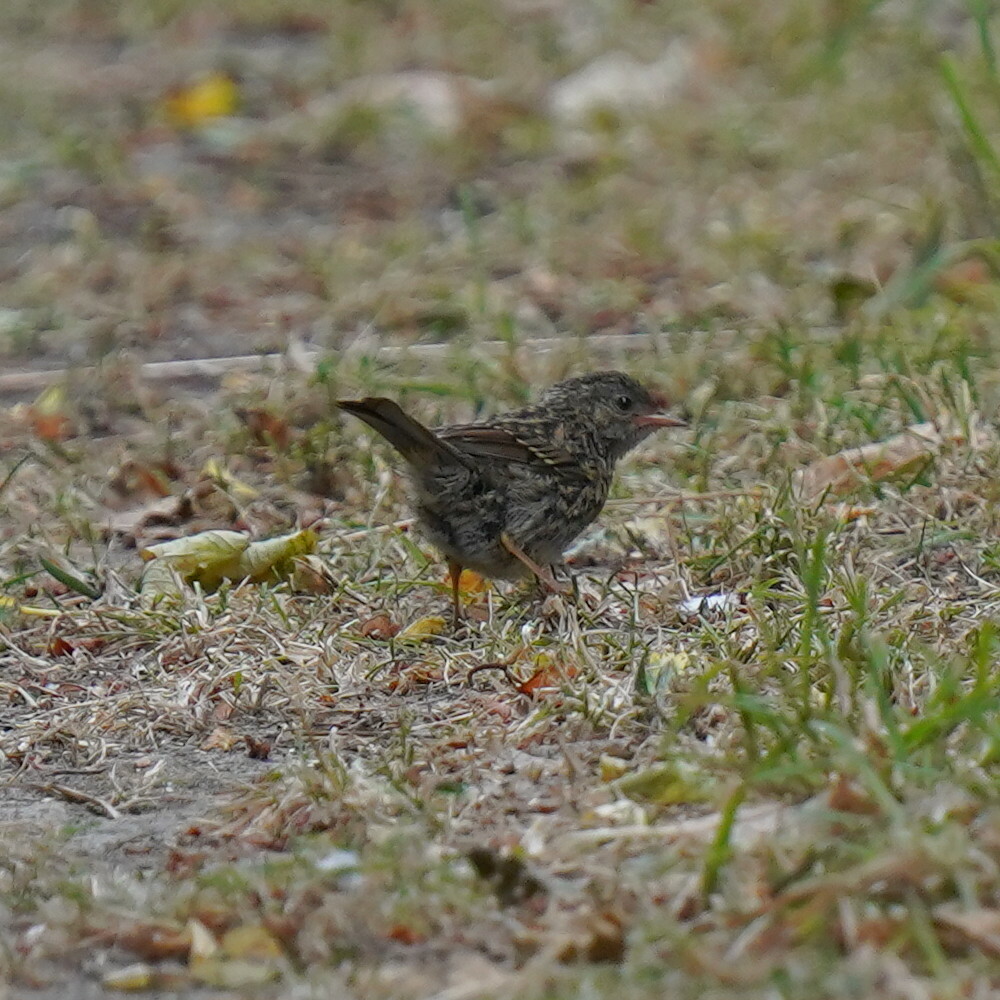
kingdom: Animalia
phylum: Chordata
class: Aves
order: Passeriformes
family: Prunellidae
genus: Prunella
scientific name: Prunella modularis
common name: Dunnock
